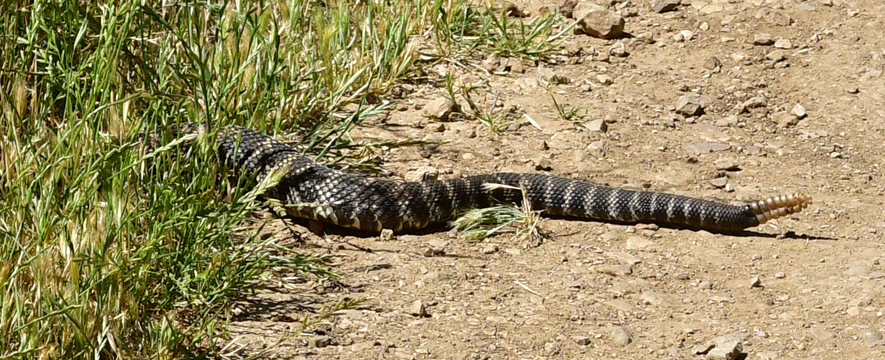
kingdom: Animalia
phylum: Chordata
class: Squamata
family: Viperidae
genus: Crotalus
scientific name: Crotalus oreganus
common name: Abyssus
